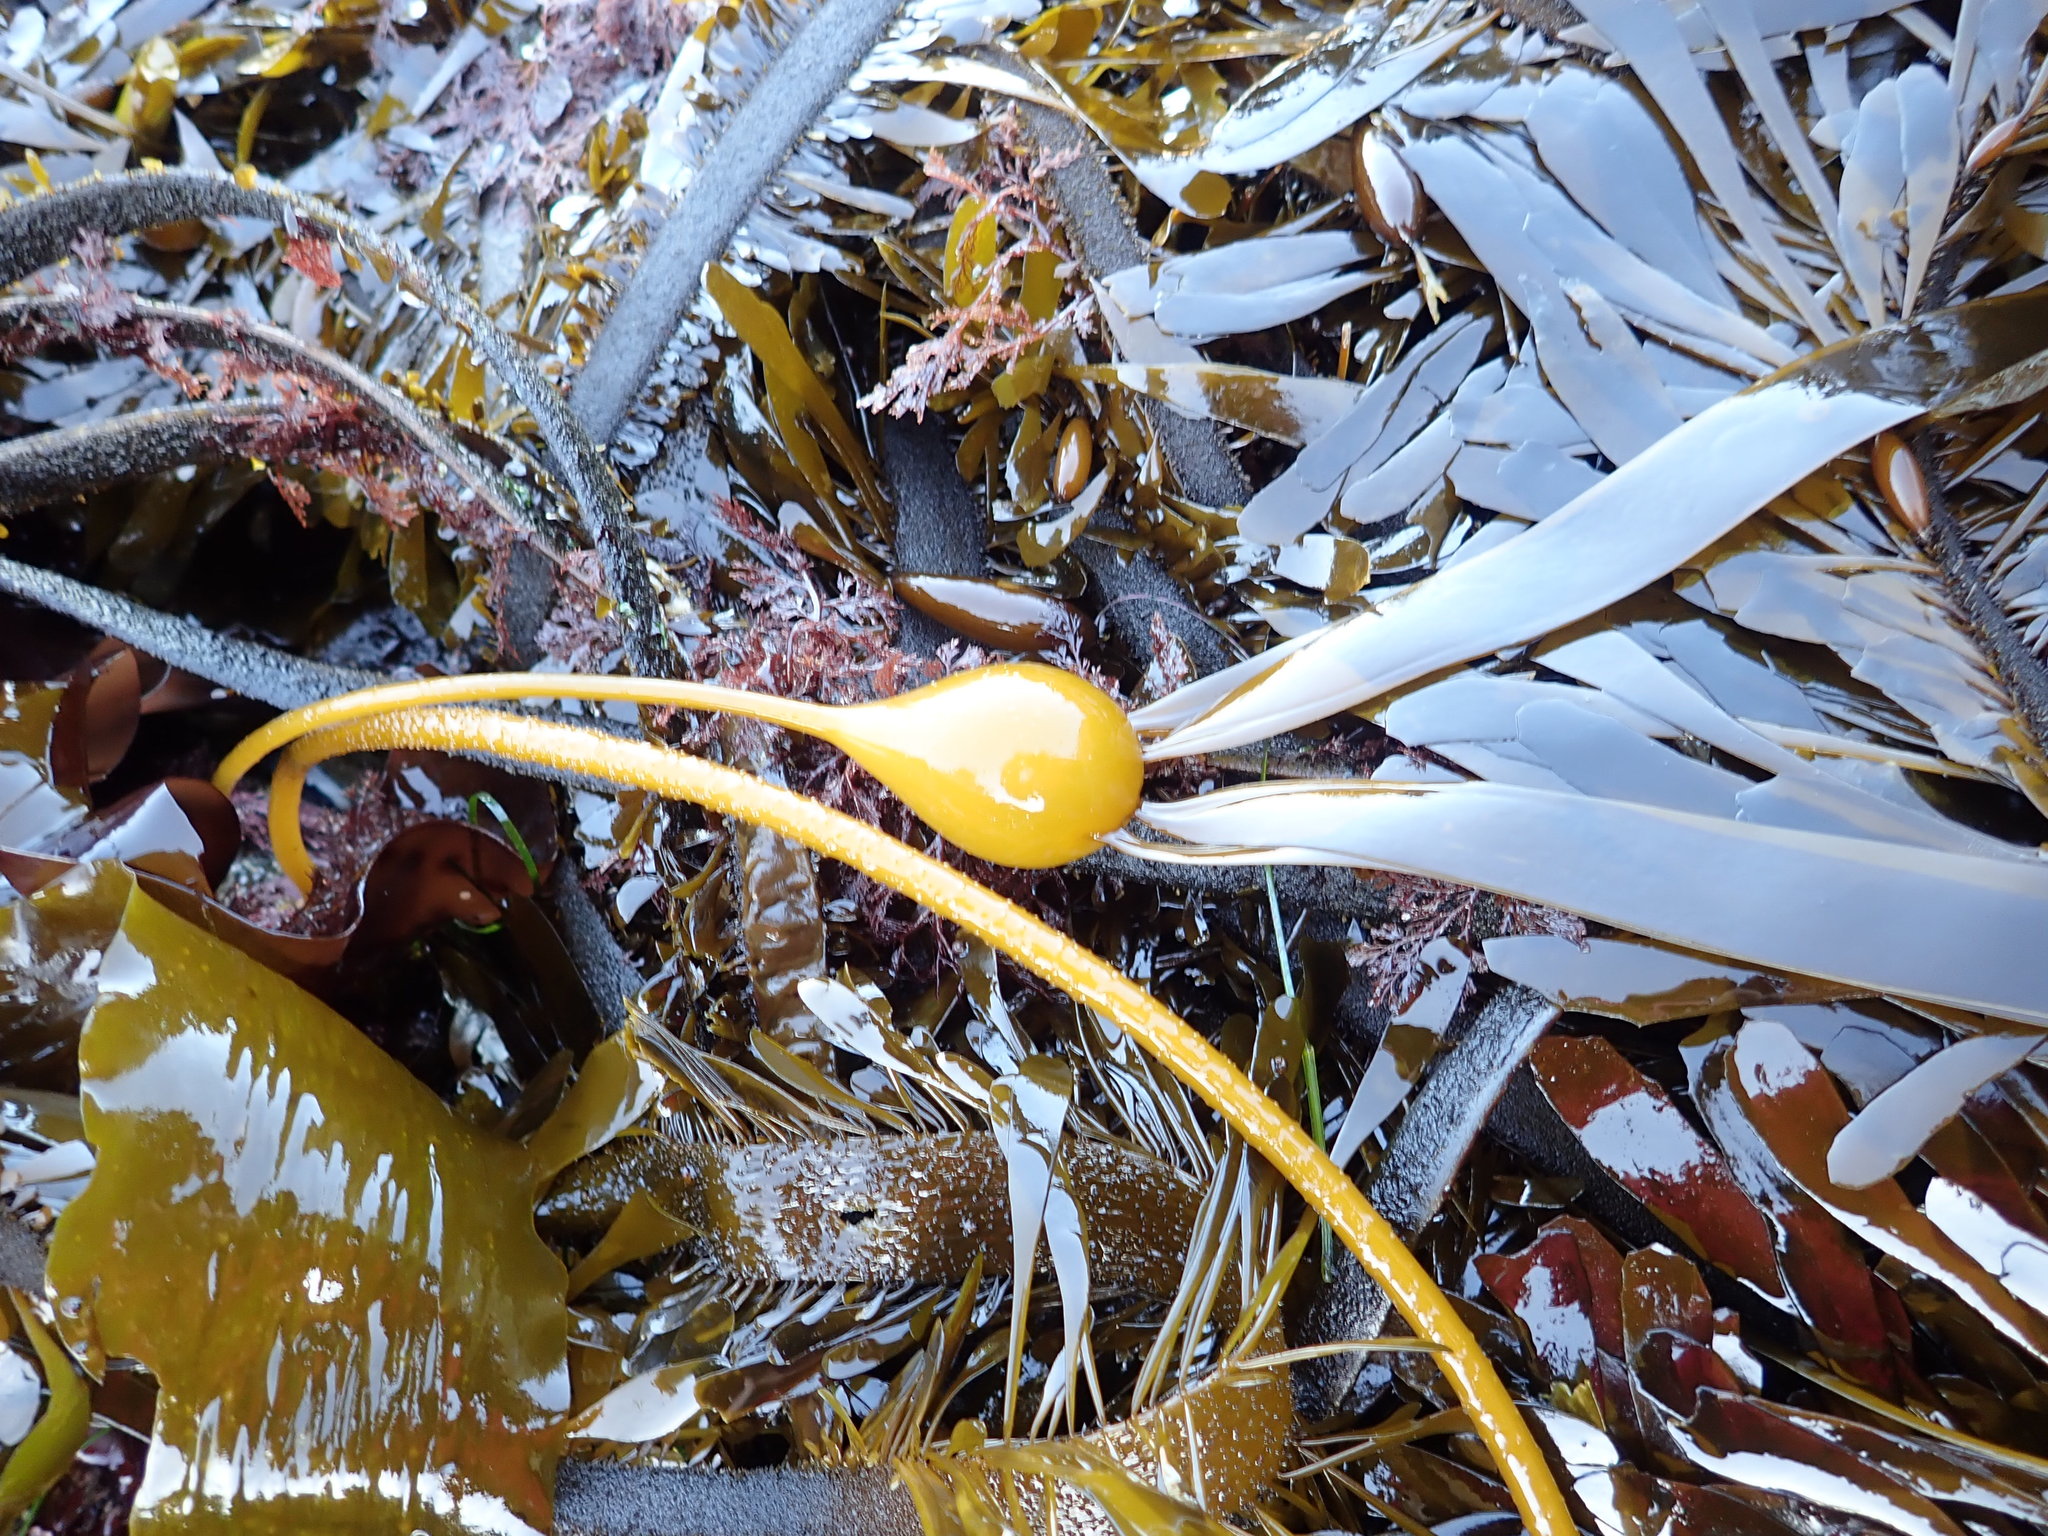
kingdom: Chromista
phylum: Ochrophyta
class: Phaeophyceae
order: Laminariales
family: Laminariaceae
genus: Nereocystis
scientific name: Nereocystis luetkeana
